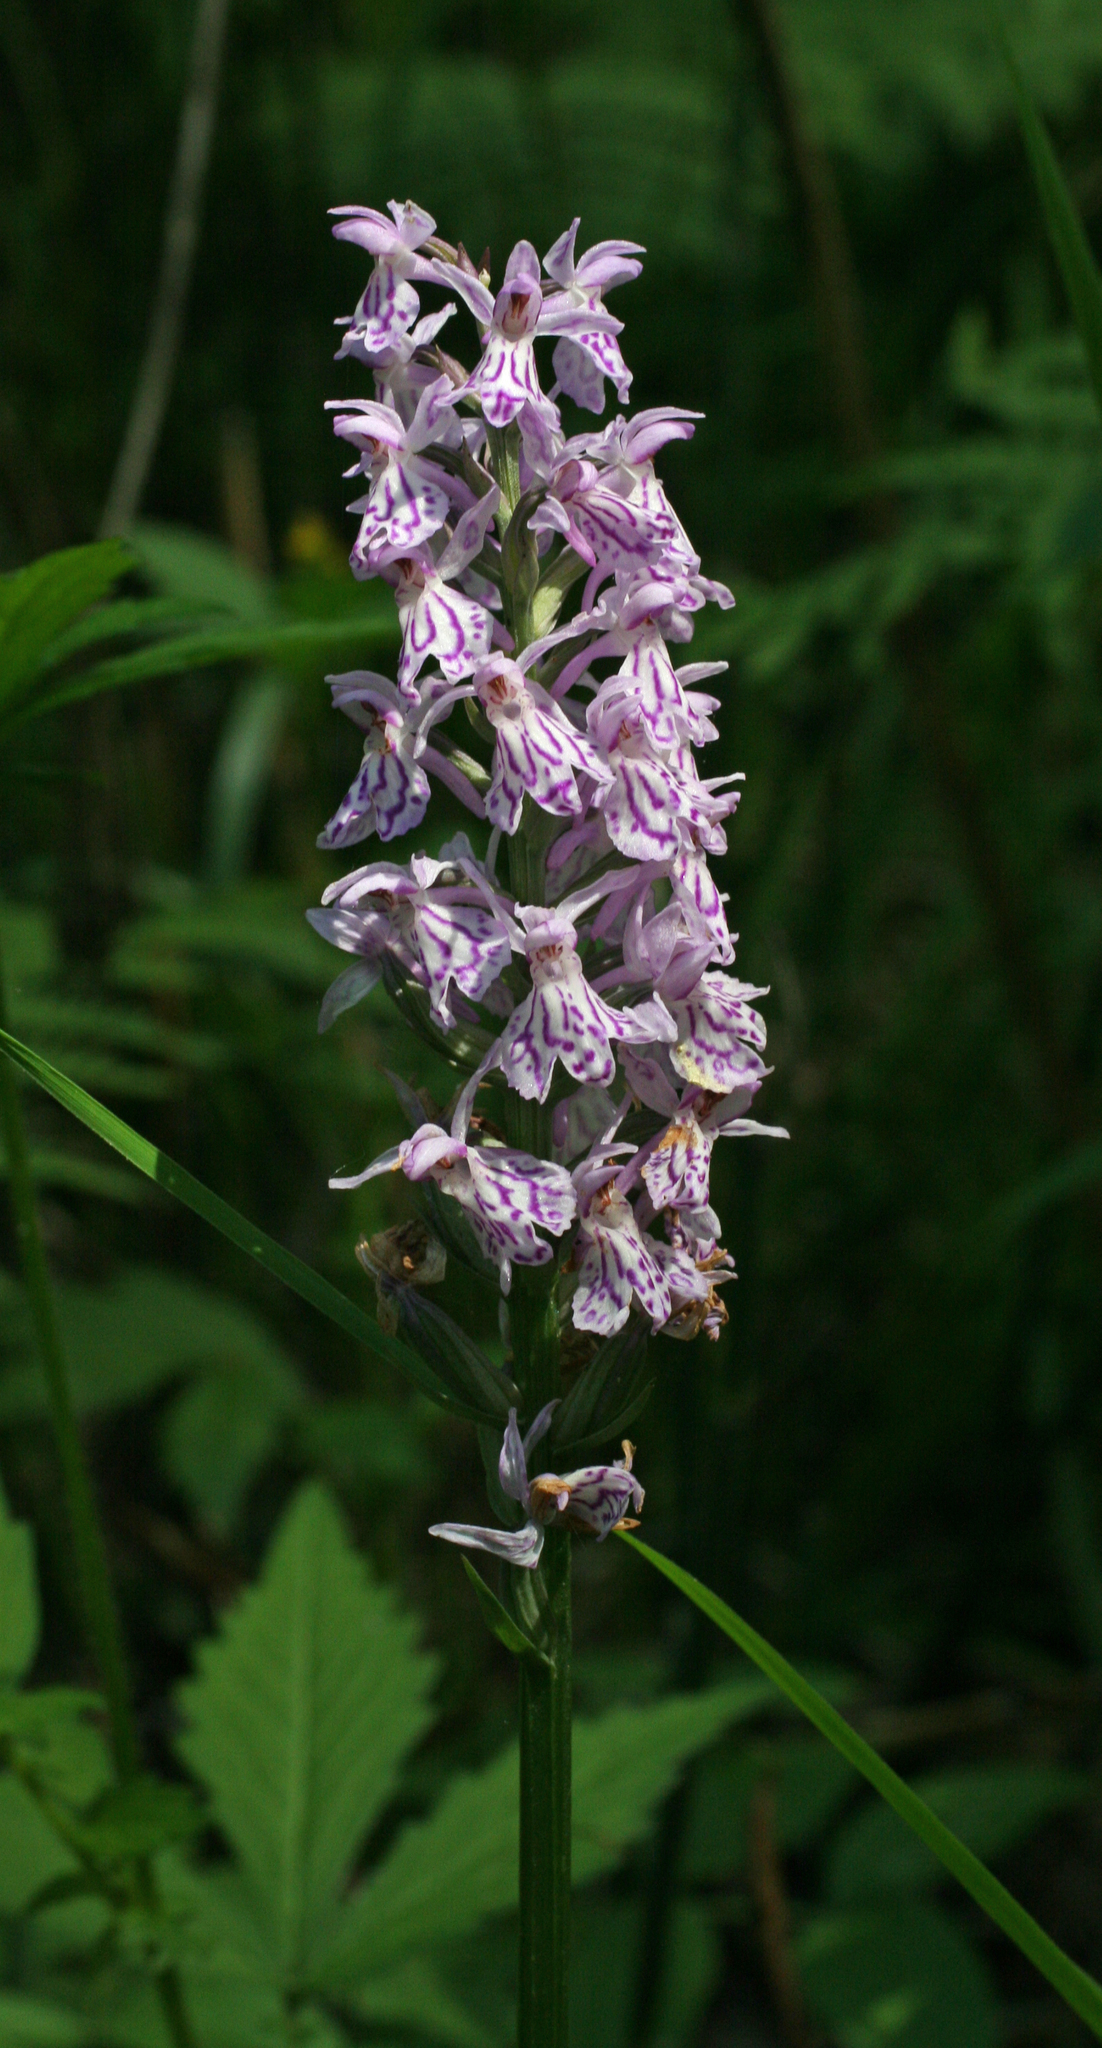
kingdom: Plantae
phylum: Tracheophyta
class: Liliopsida
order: Asparagales
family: Orchidaceae
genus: Dactylorhiza
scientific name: Dactylorhiza maculata
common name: Heath spotted-orchid
